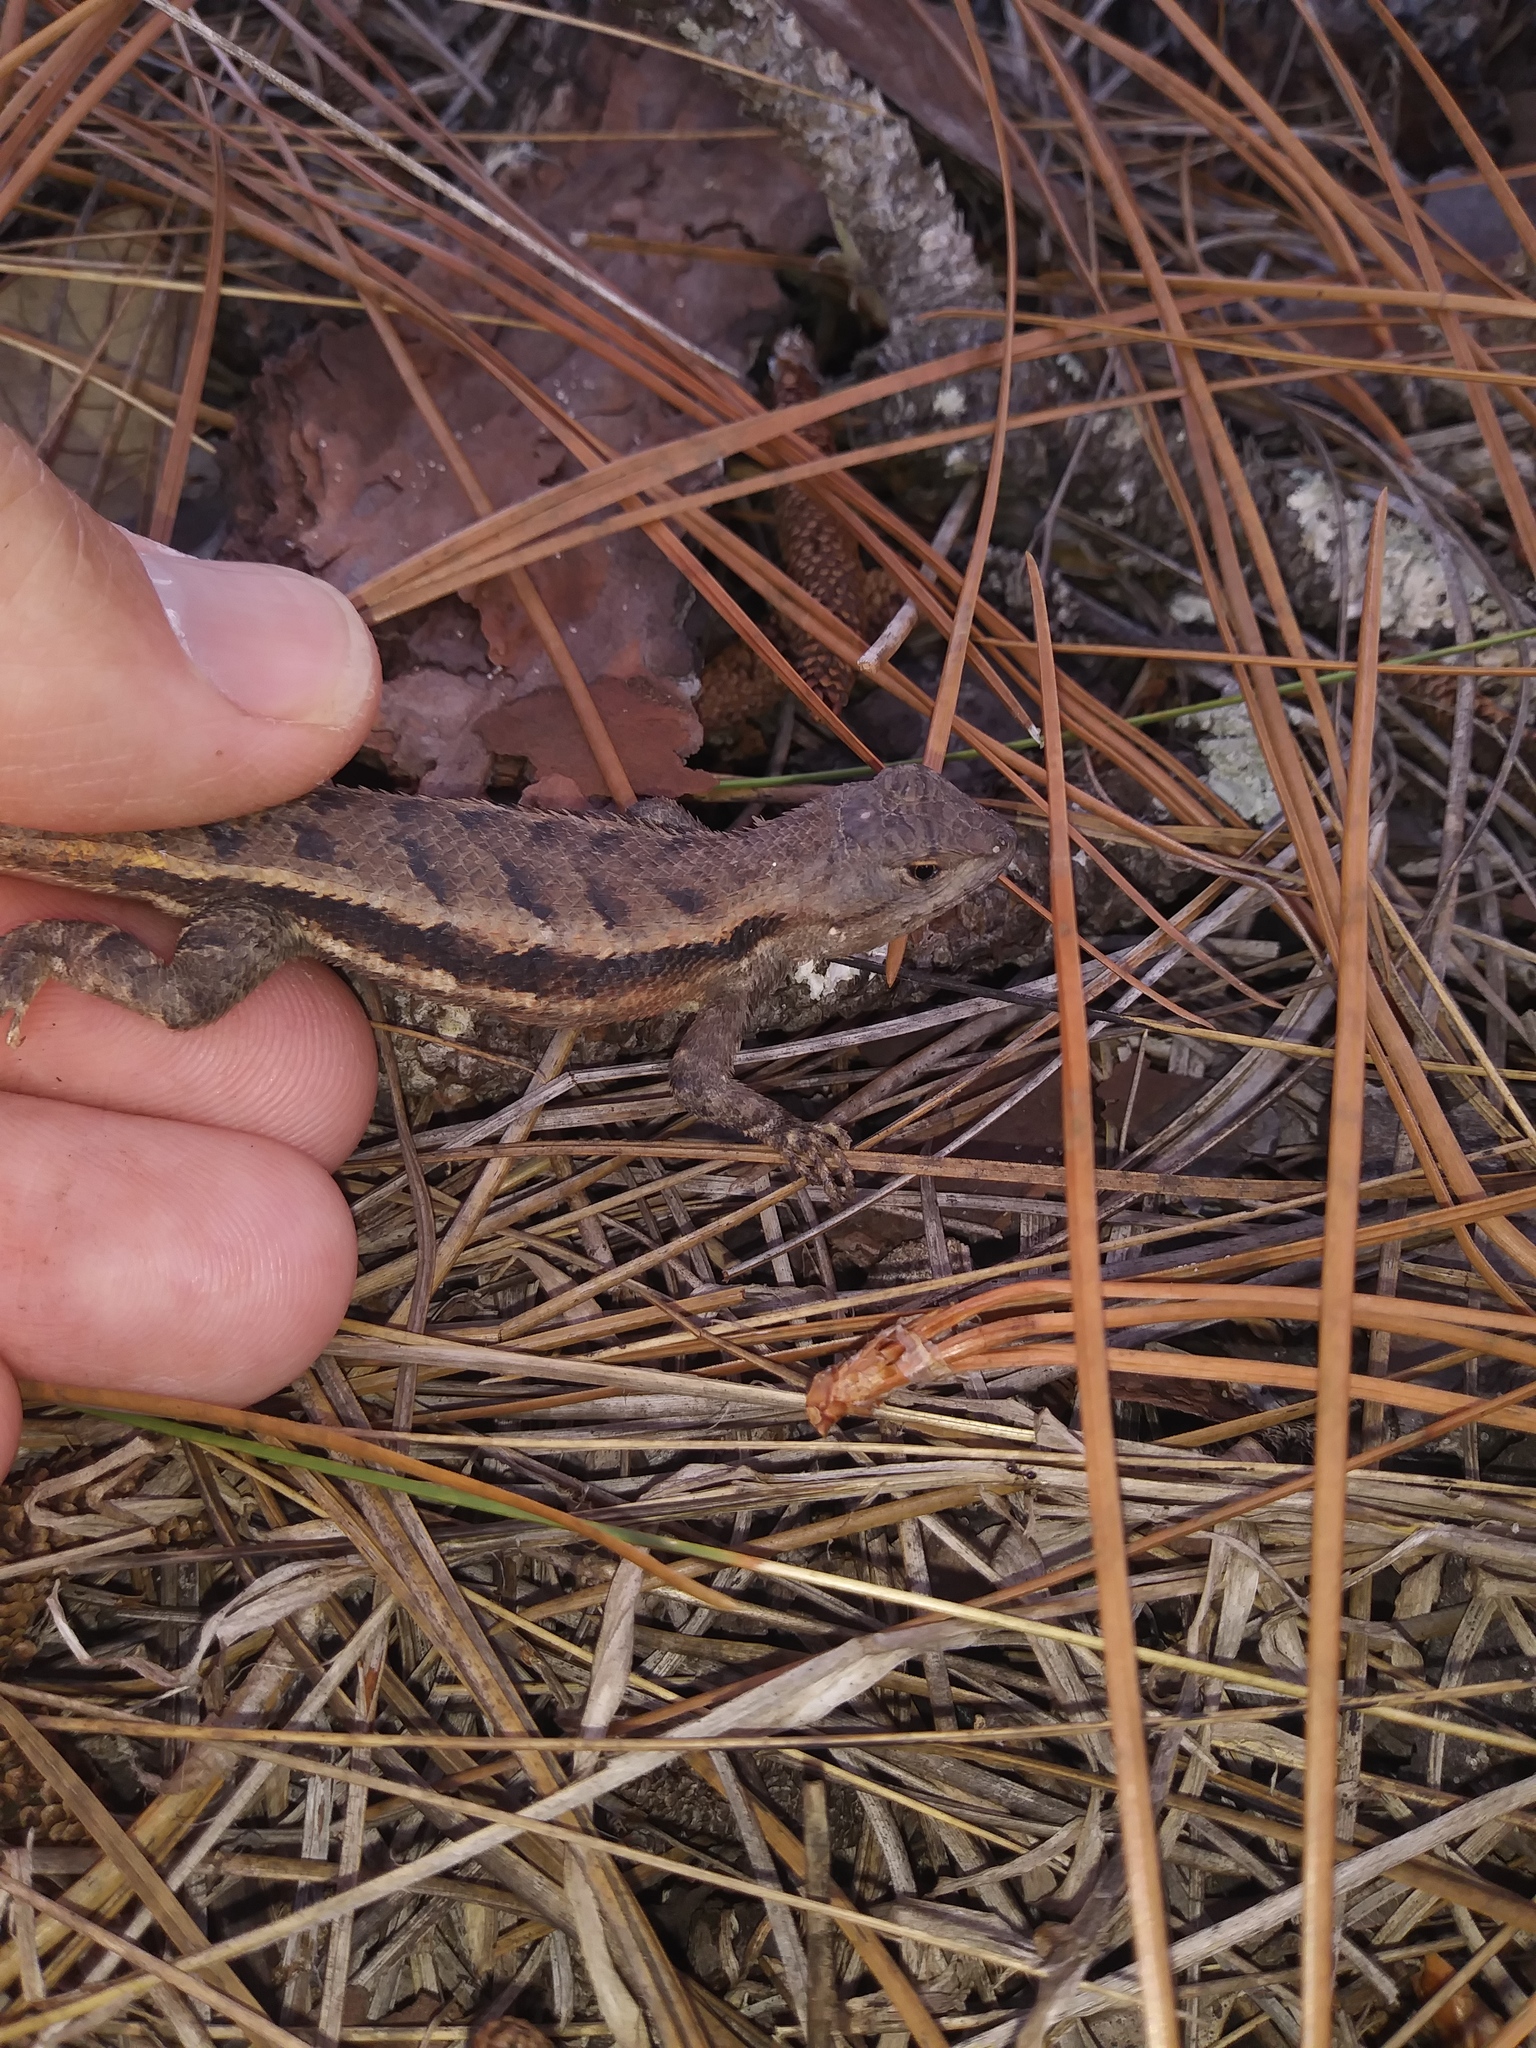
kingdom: Animalia
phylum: Chordata
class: Squamata
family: Phrynosomatidae
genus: Sceloporus
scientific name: Sceloporus woodi
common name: Florida scrub lizard
